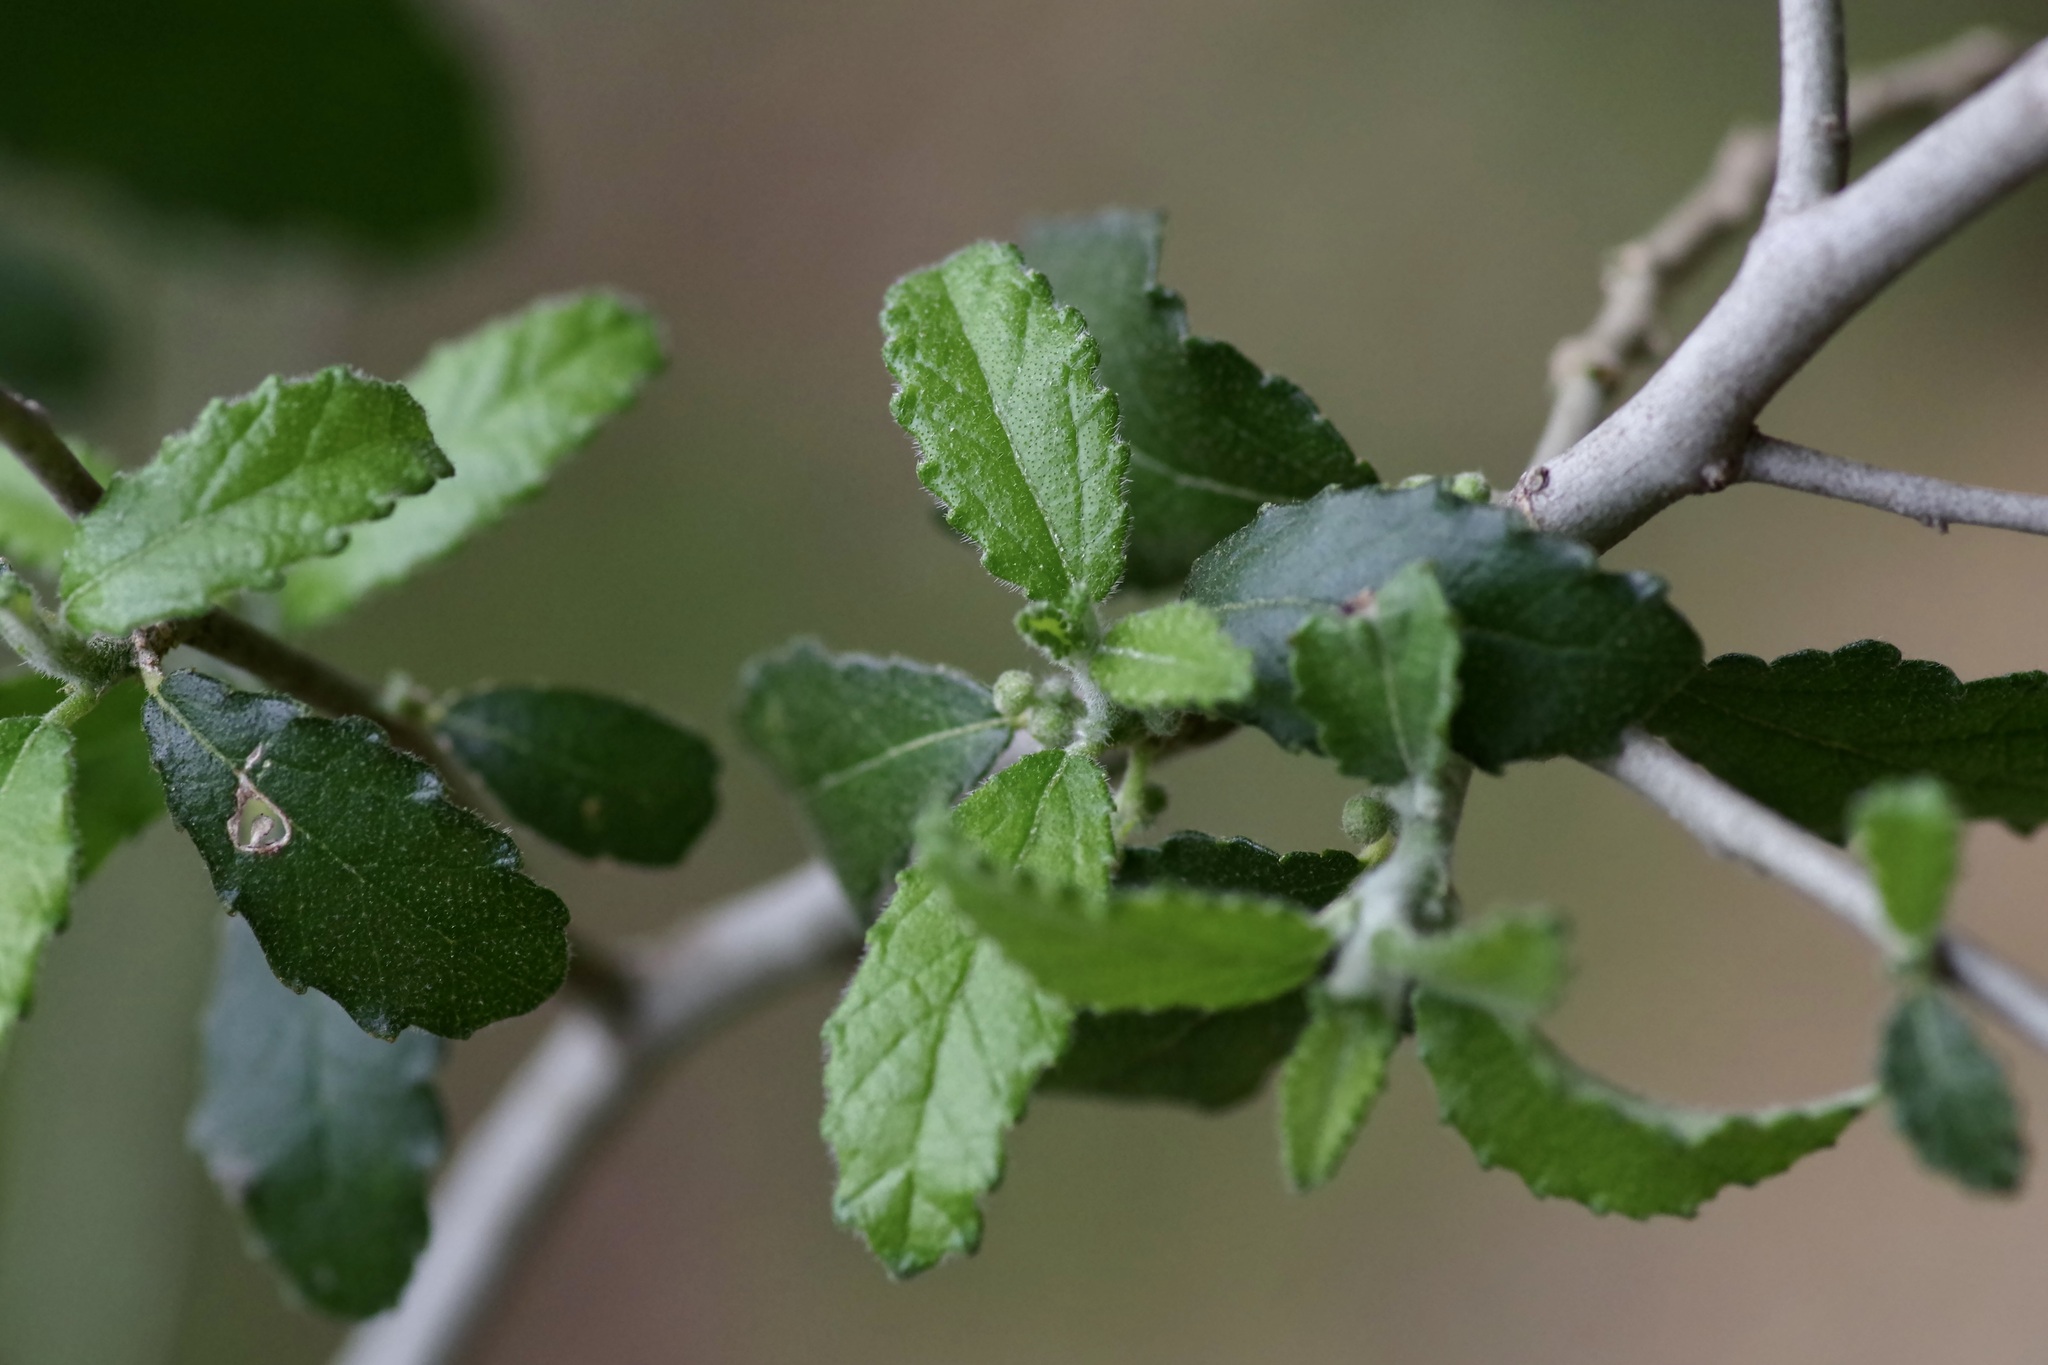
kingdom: Plantae
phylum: Tracheophyta
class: Magnoliopsida
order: Malpighiales
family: Euphorbiaceae
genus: Bernardia
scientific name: Bernardia myricifolia
